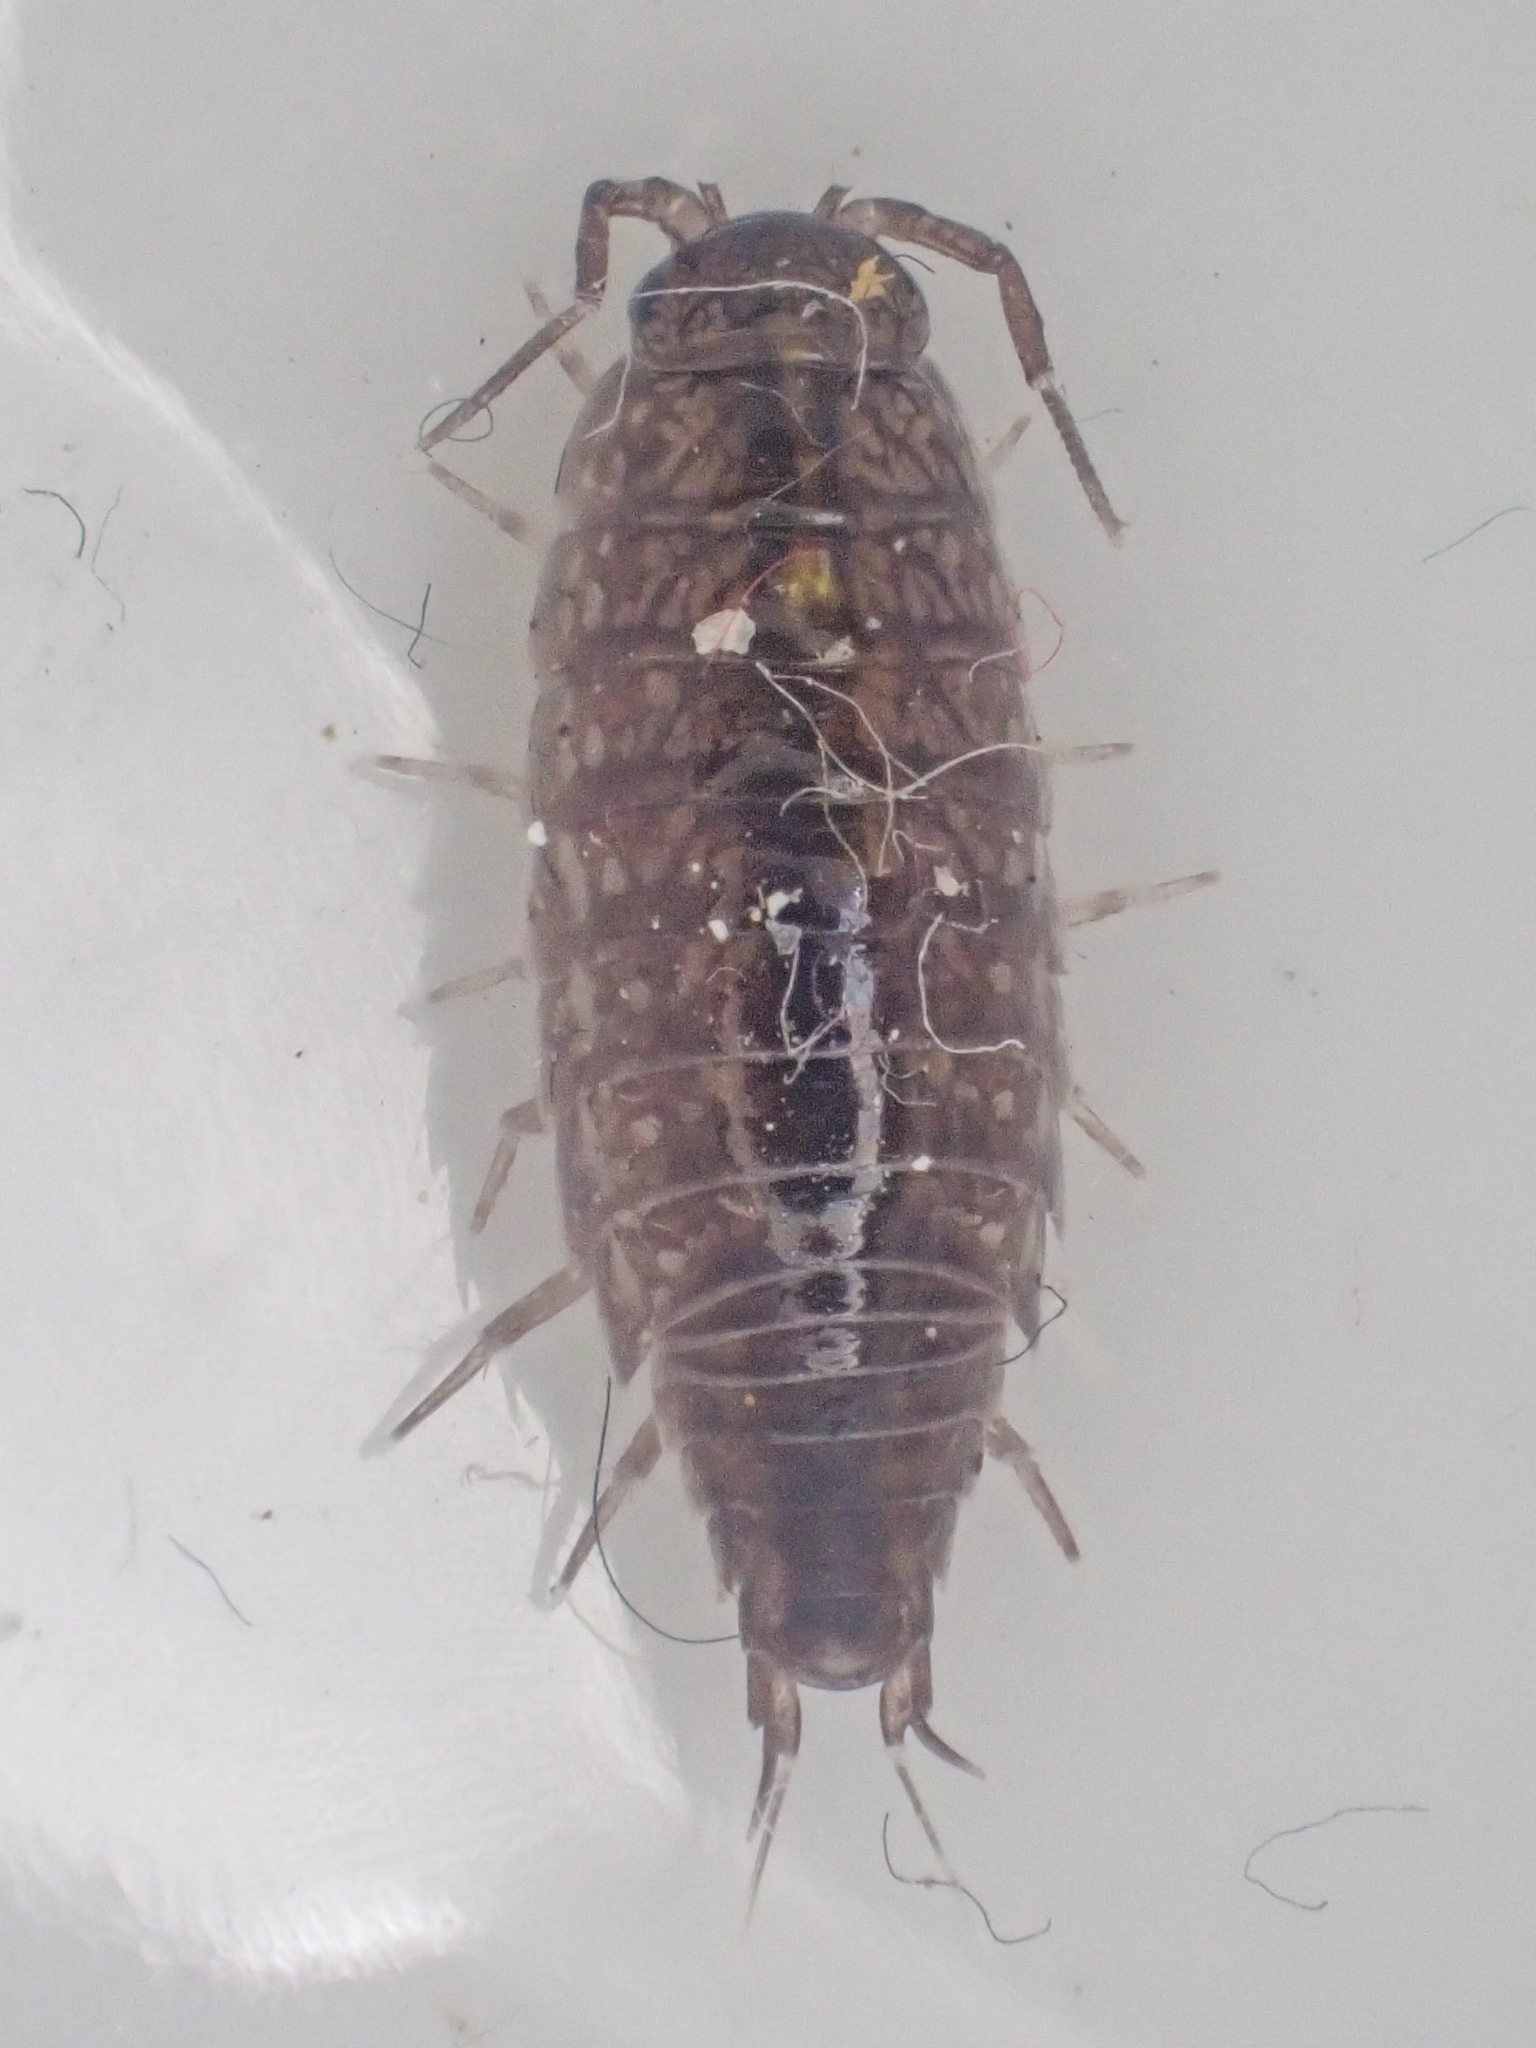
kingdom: Animalia
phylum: Arthropoda
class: Malacostraca
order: Isopoda
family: Ligiidae
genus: Ligidium
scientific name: Ligidium gracile
